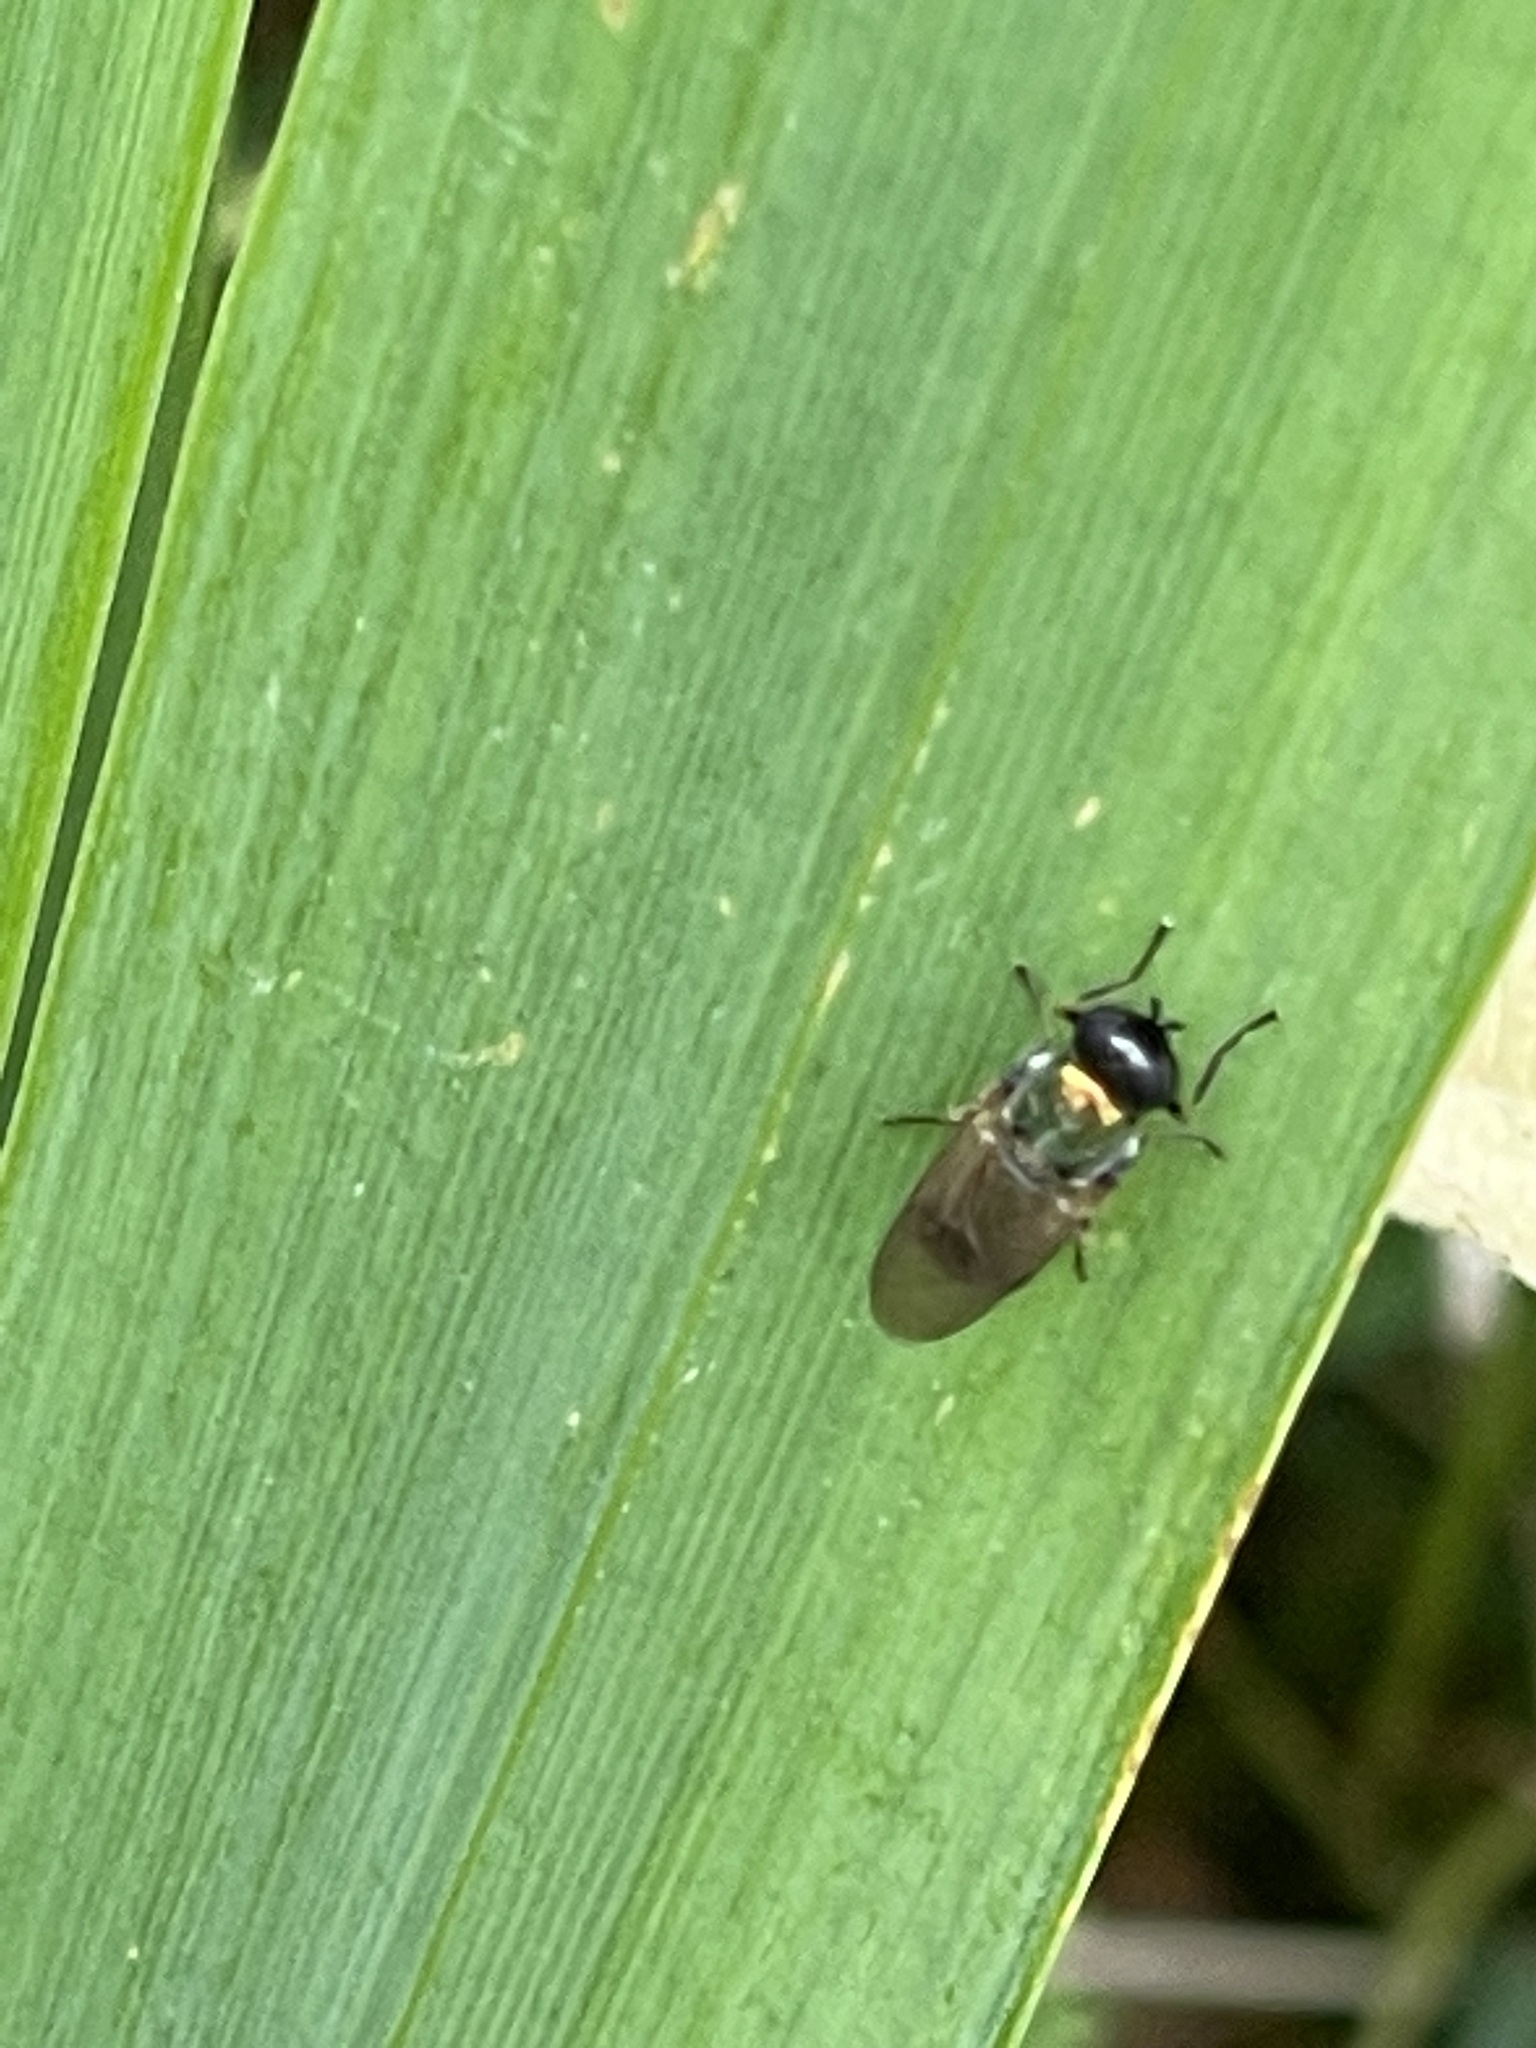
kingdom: Animalia
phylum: Arthropoda
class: Insecta
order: Diptera
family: Stratiomyidae
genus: Chloromyia
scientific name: Chloromyia formosa
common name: Soldier fly
